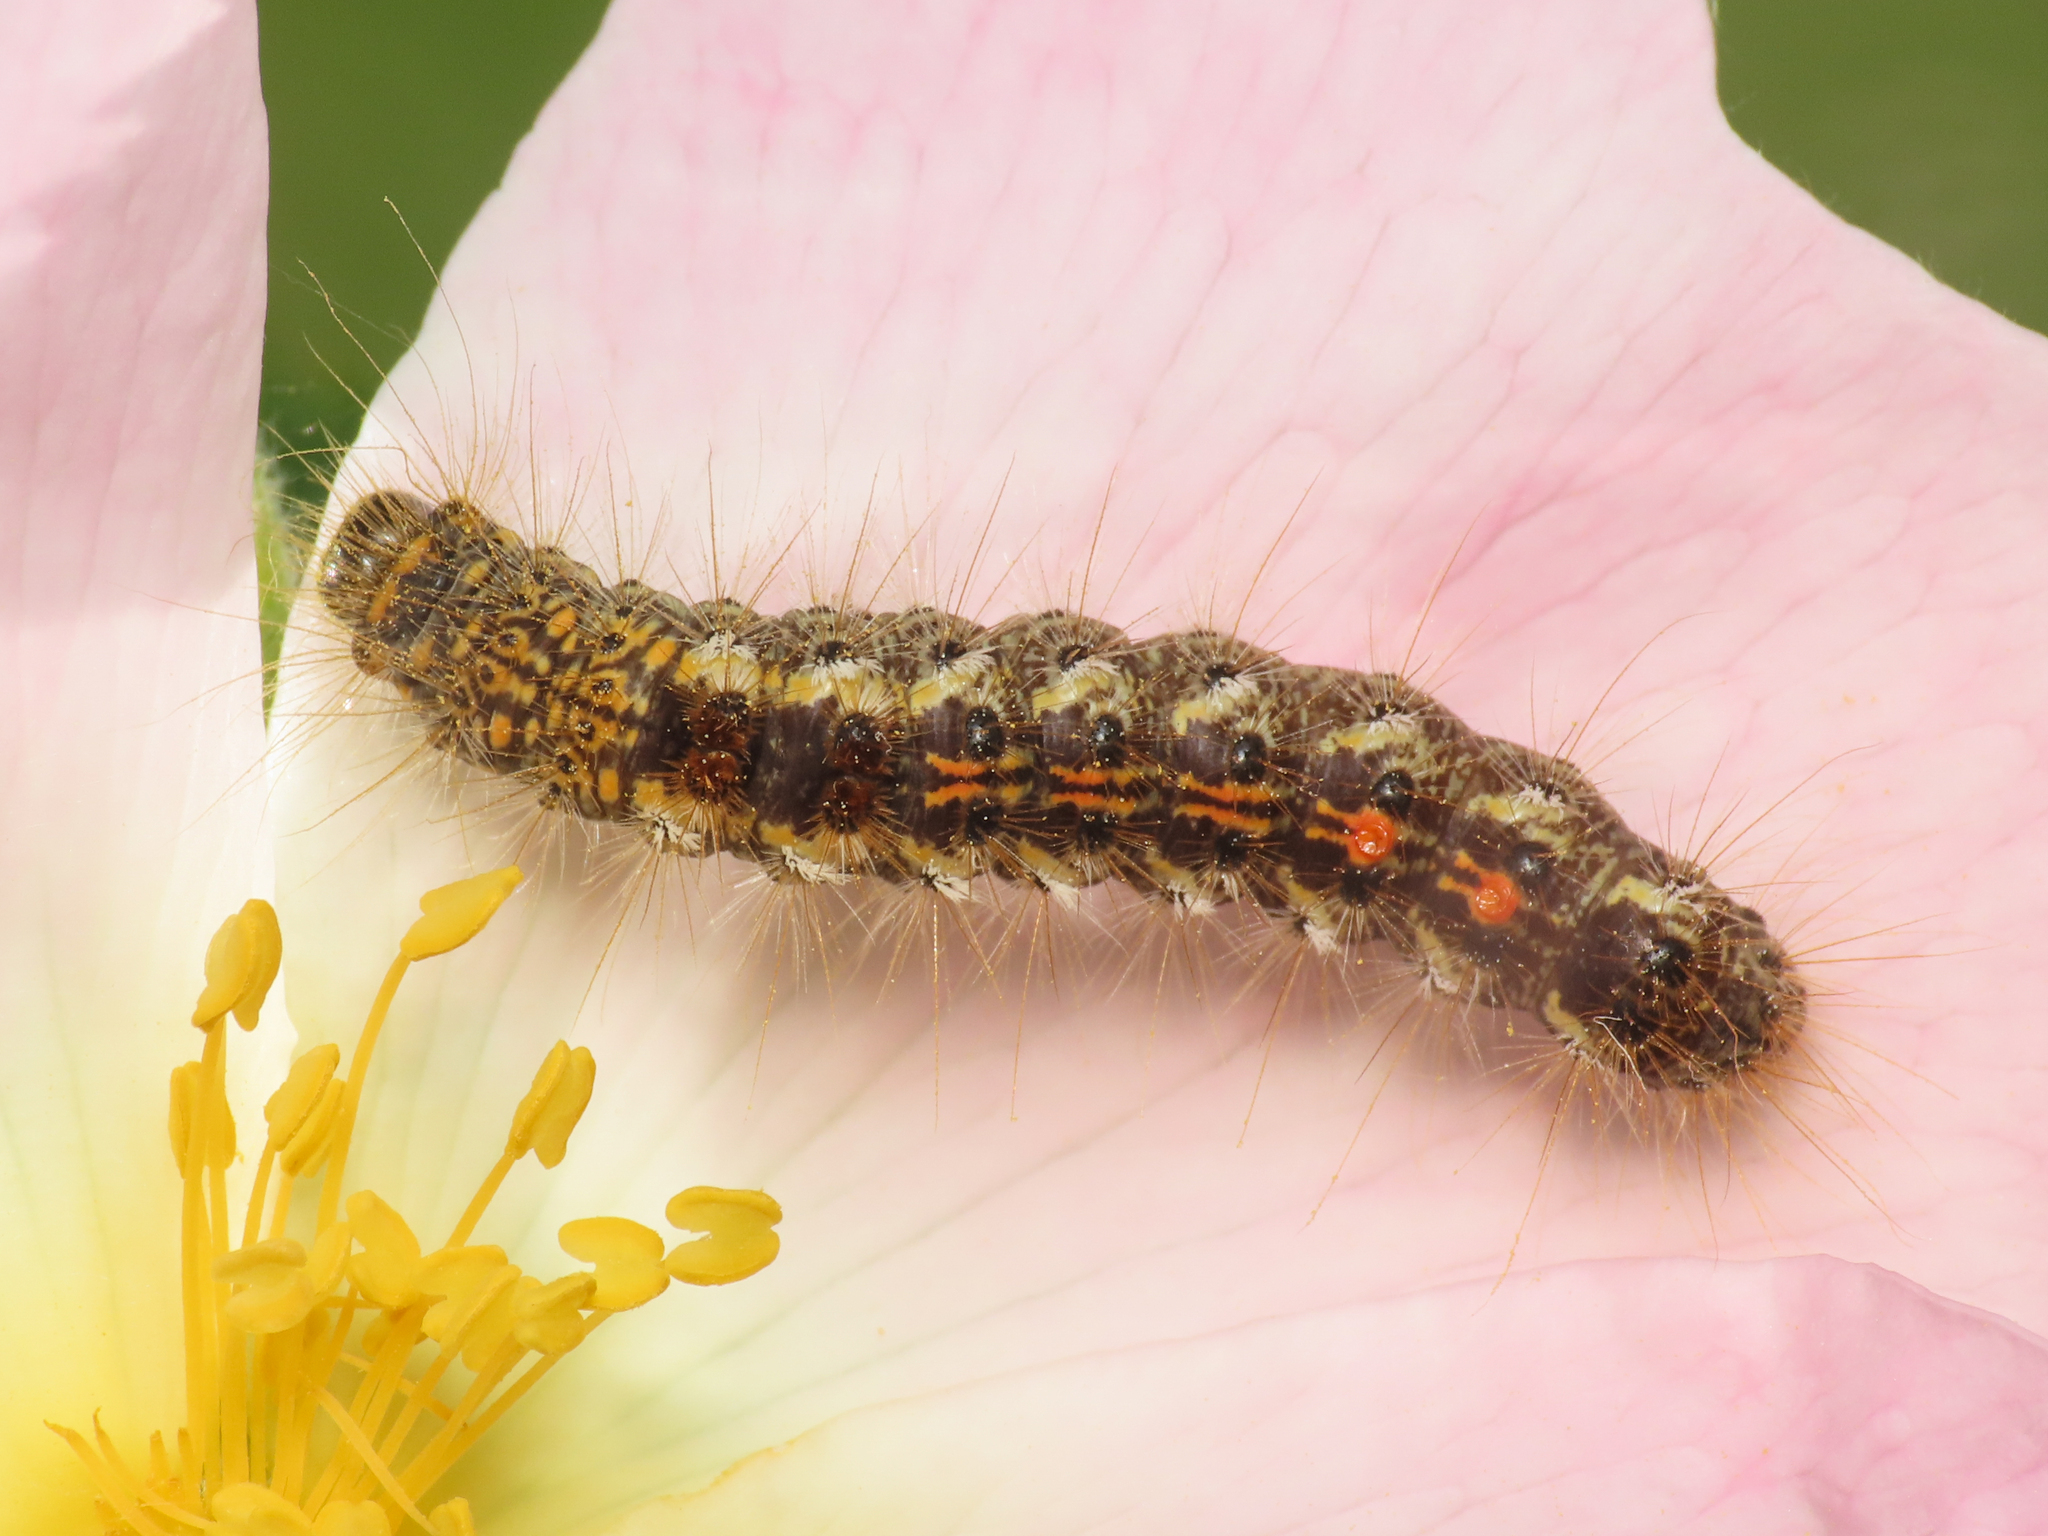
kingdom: Animalia
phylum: Arthropoda
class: Insecta
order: Lepidoptera
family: Erebidae
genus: Euproctis
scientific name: Euproctis chrysorrhoea
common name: Brown-tail
